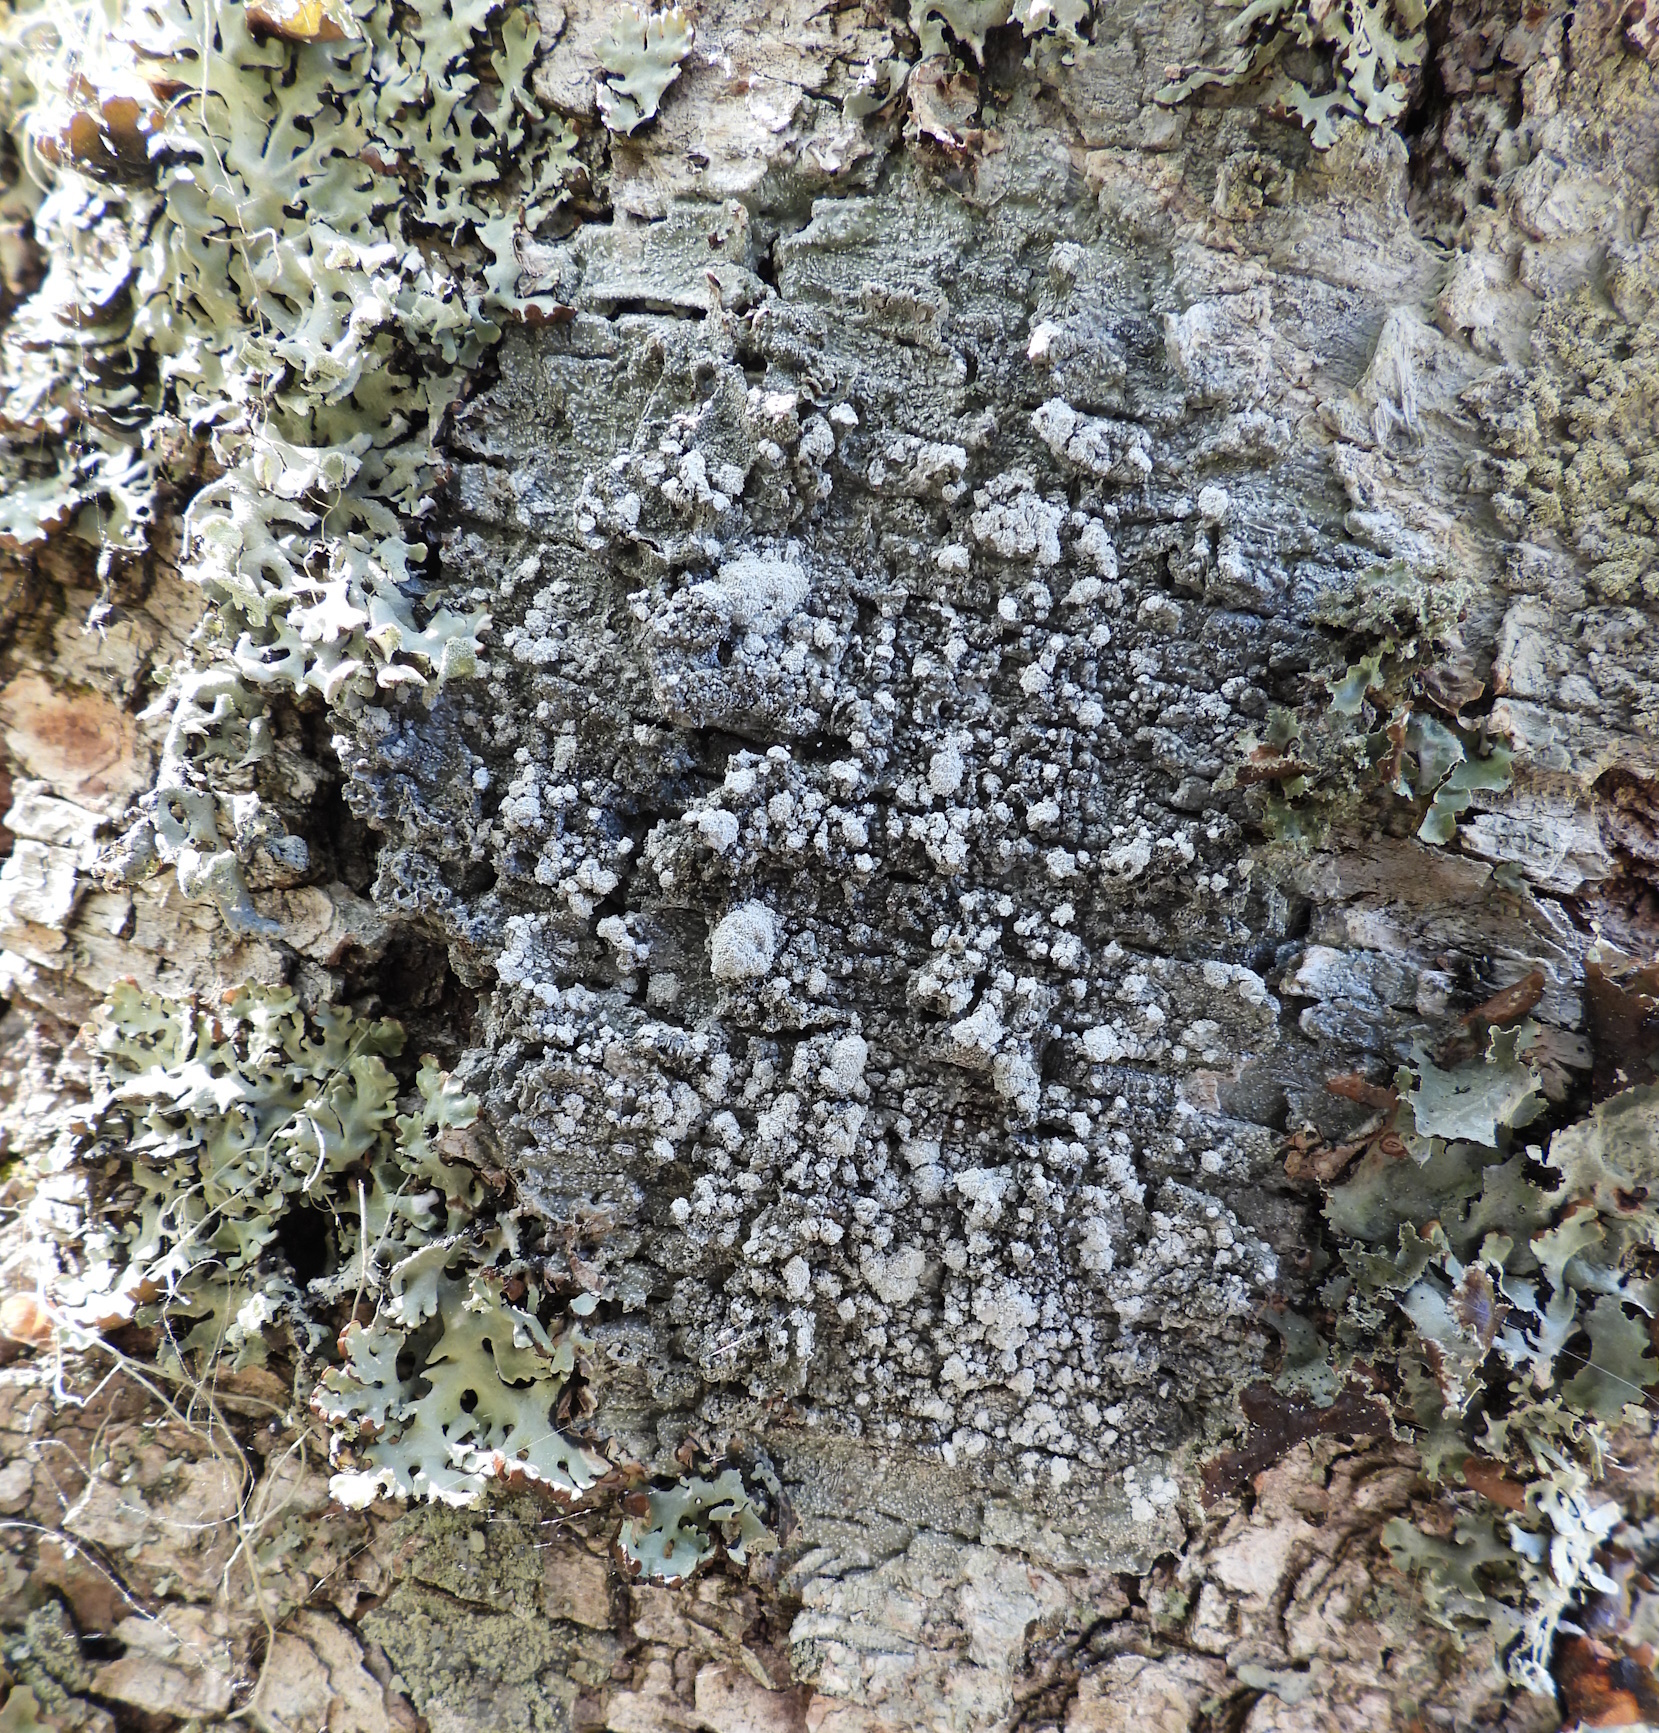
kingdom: Fungi
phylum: Ascomycota
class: Lecanoromycetes
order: Pertusariales
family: Pertusariaceae
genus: Lepra
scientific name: Lepra amara
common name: Bitter wart lichen
